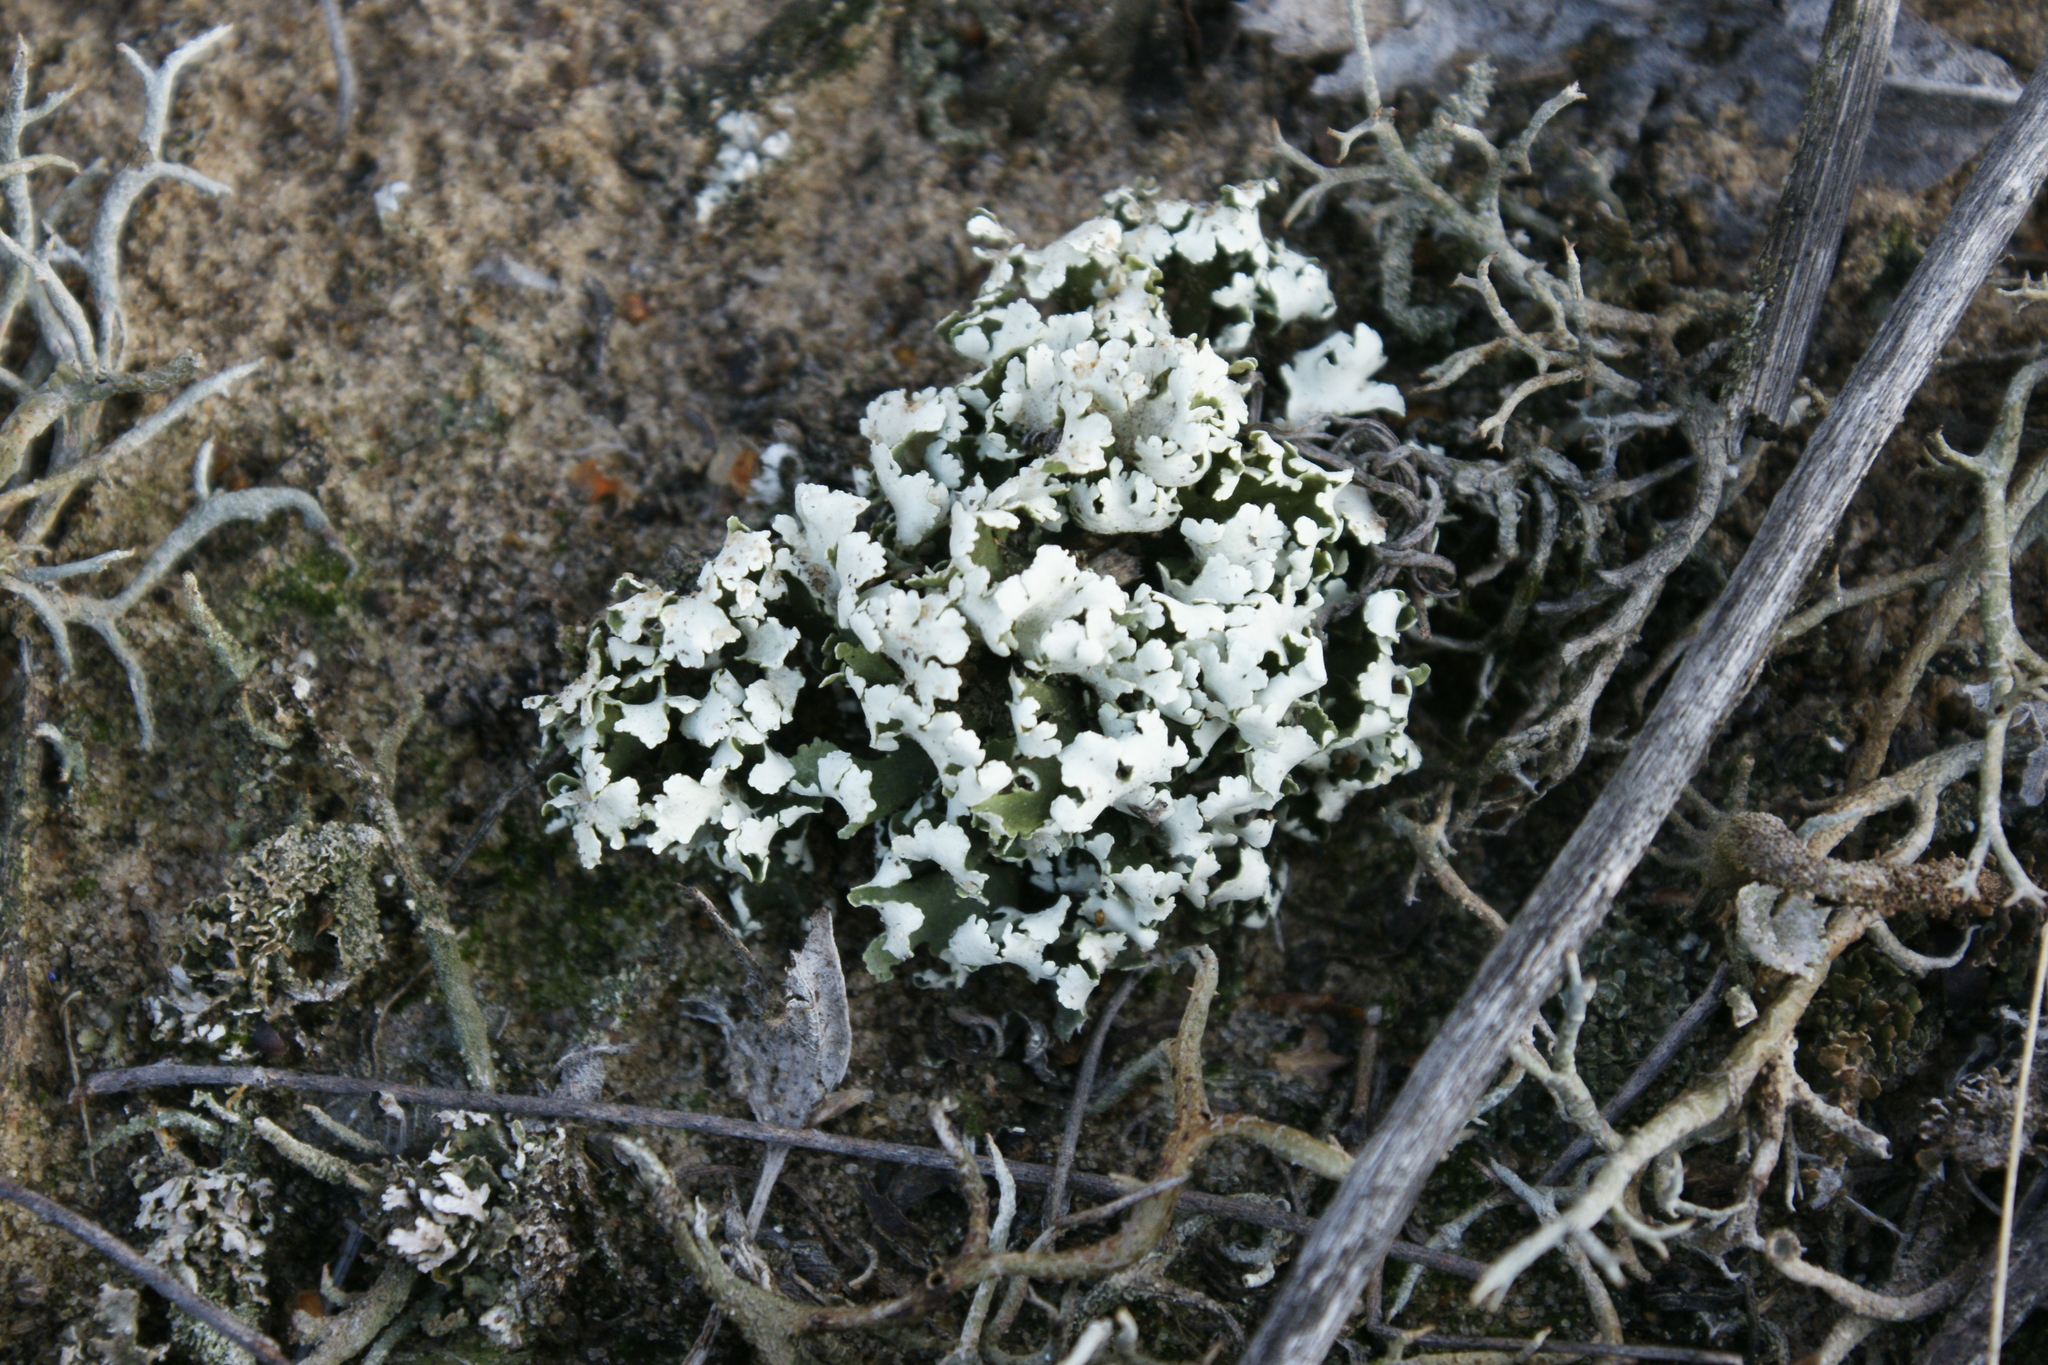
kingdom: Fungi
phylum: Ascomycota
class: Lecanoromycetes
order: Lecanorales
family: Cladoniaceae
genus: Cladonia
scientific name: Cladonia foliacea
